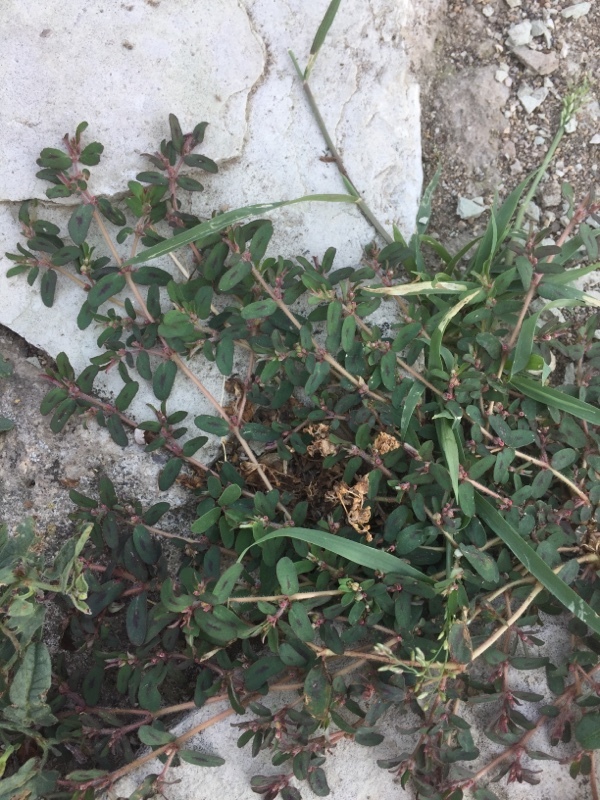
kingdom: Plantae
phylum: Tracheophyta
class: Magnoliopsida
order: Malpighiales
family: Euphorbiaceae
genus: Euphorbia
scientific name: Euphorbia maculata
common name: Spotted spurge
